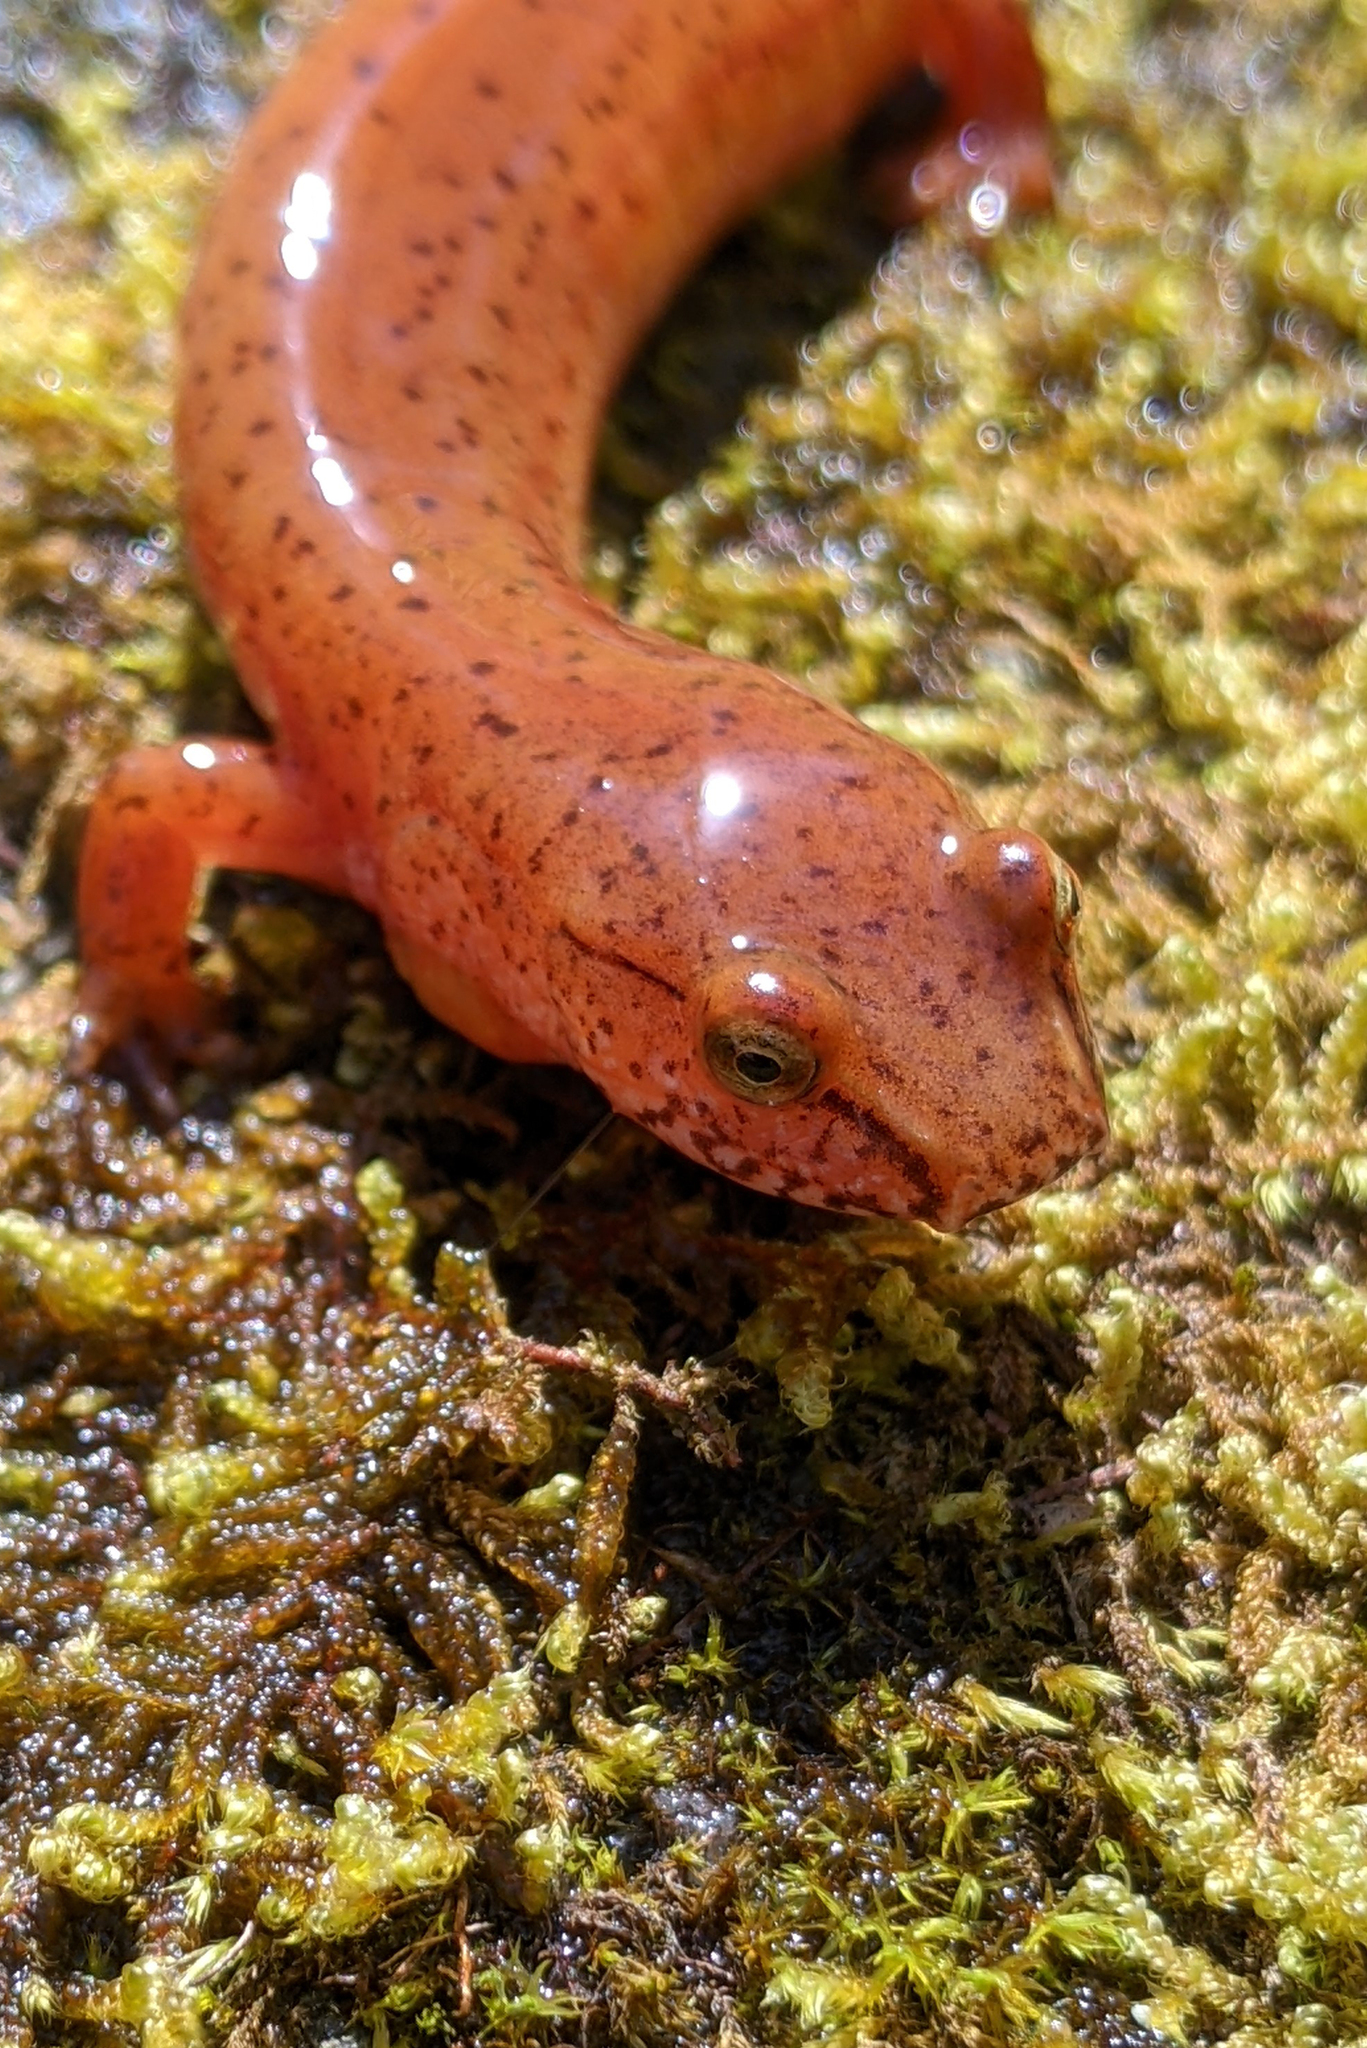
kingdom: Animalia
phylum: Chordata
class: Amphibia
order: Caudata
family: Plethodontidae
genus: Gyrinophilus
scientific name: Gyrinophilus porphyriticus
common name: Spring salamander
